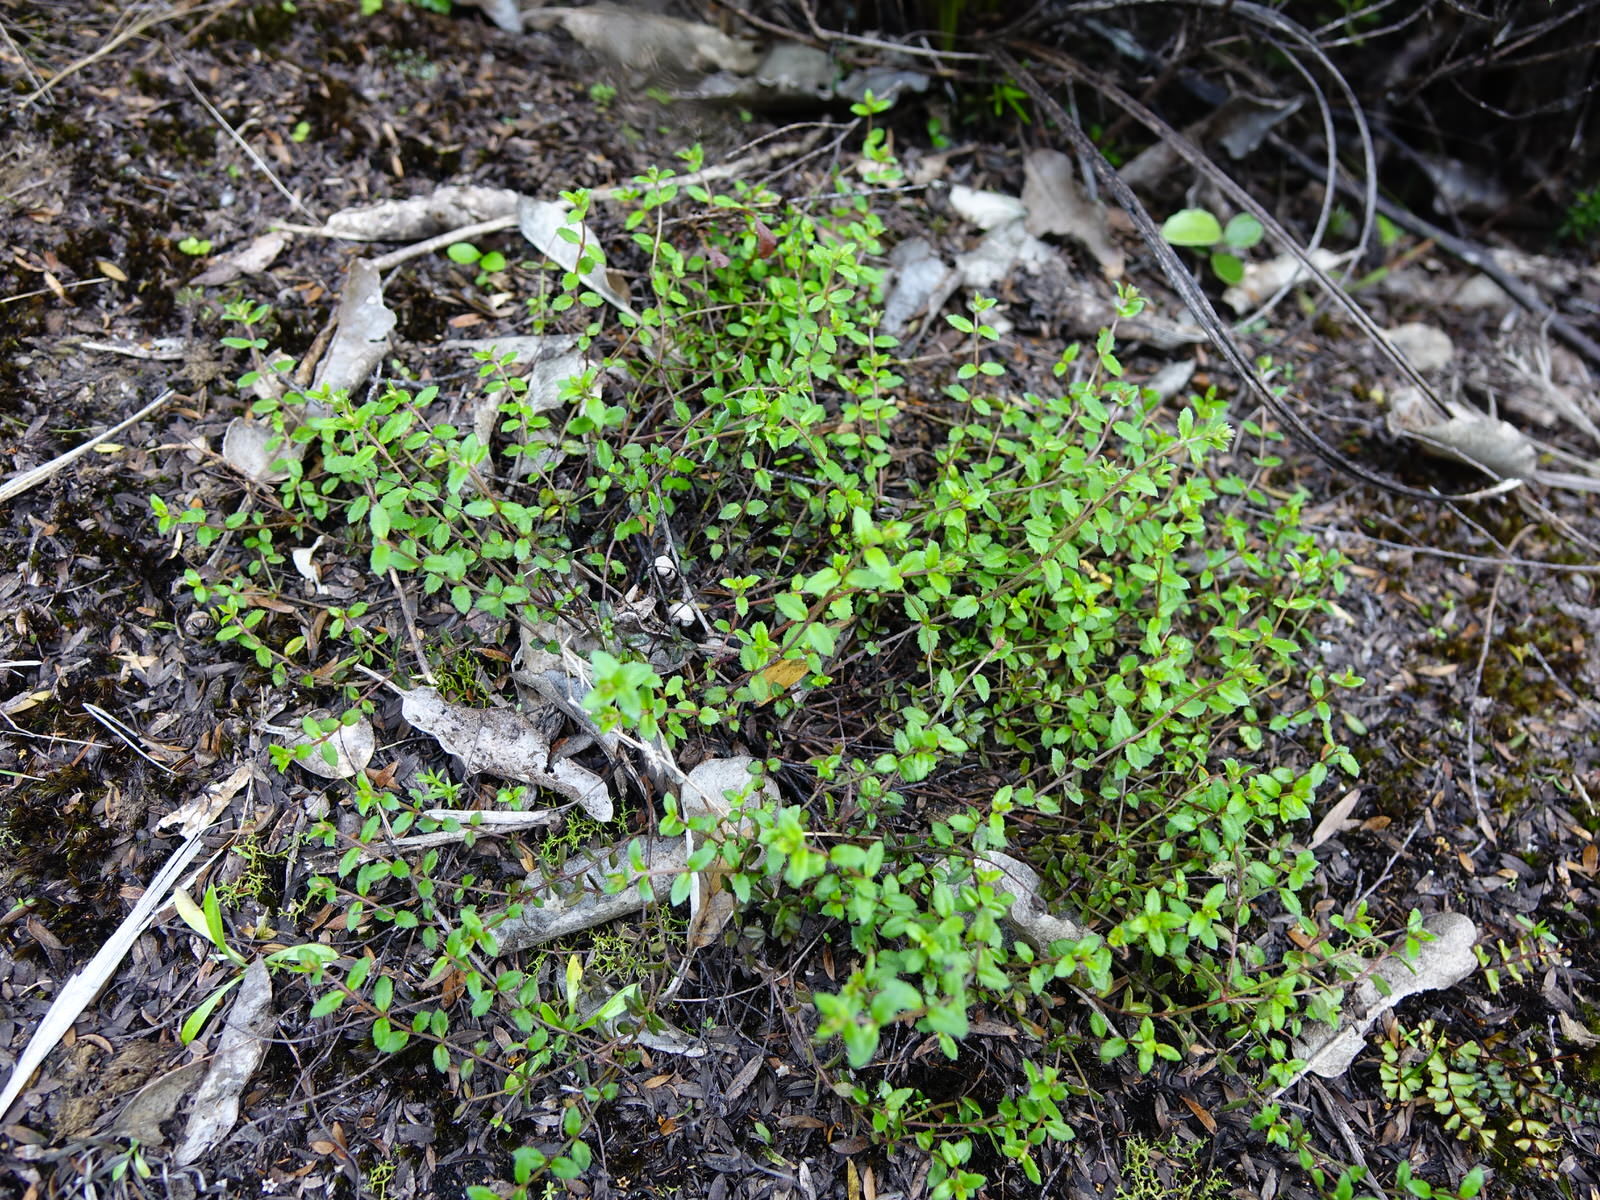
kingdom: Plantae
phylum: Tracheophyta
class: Magnoliopsida
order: Saxifragales
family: Haloragaceae
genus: Gonocarpus
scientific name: Gonocarpus incanus
